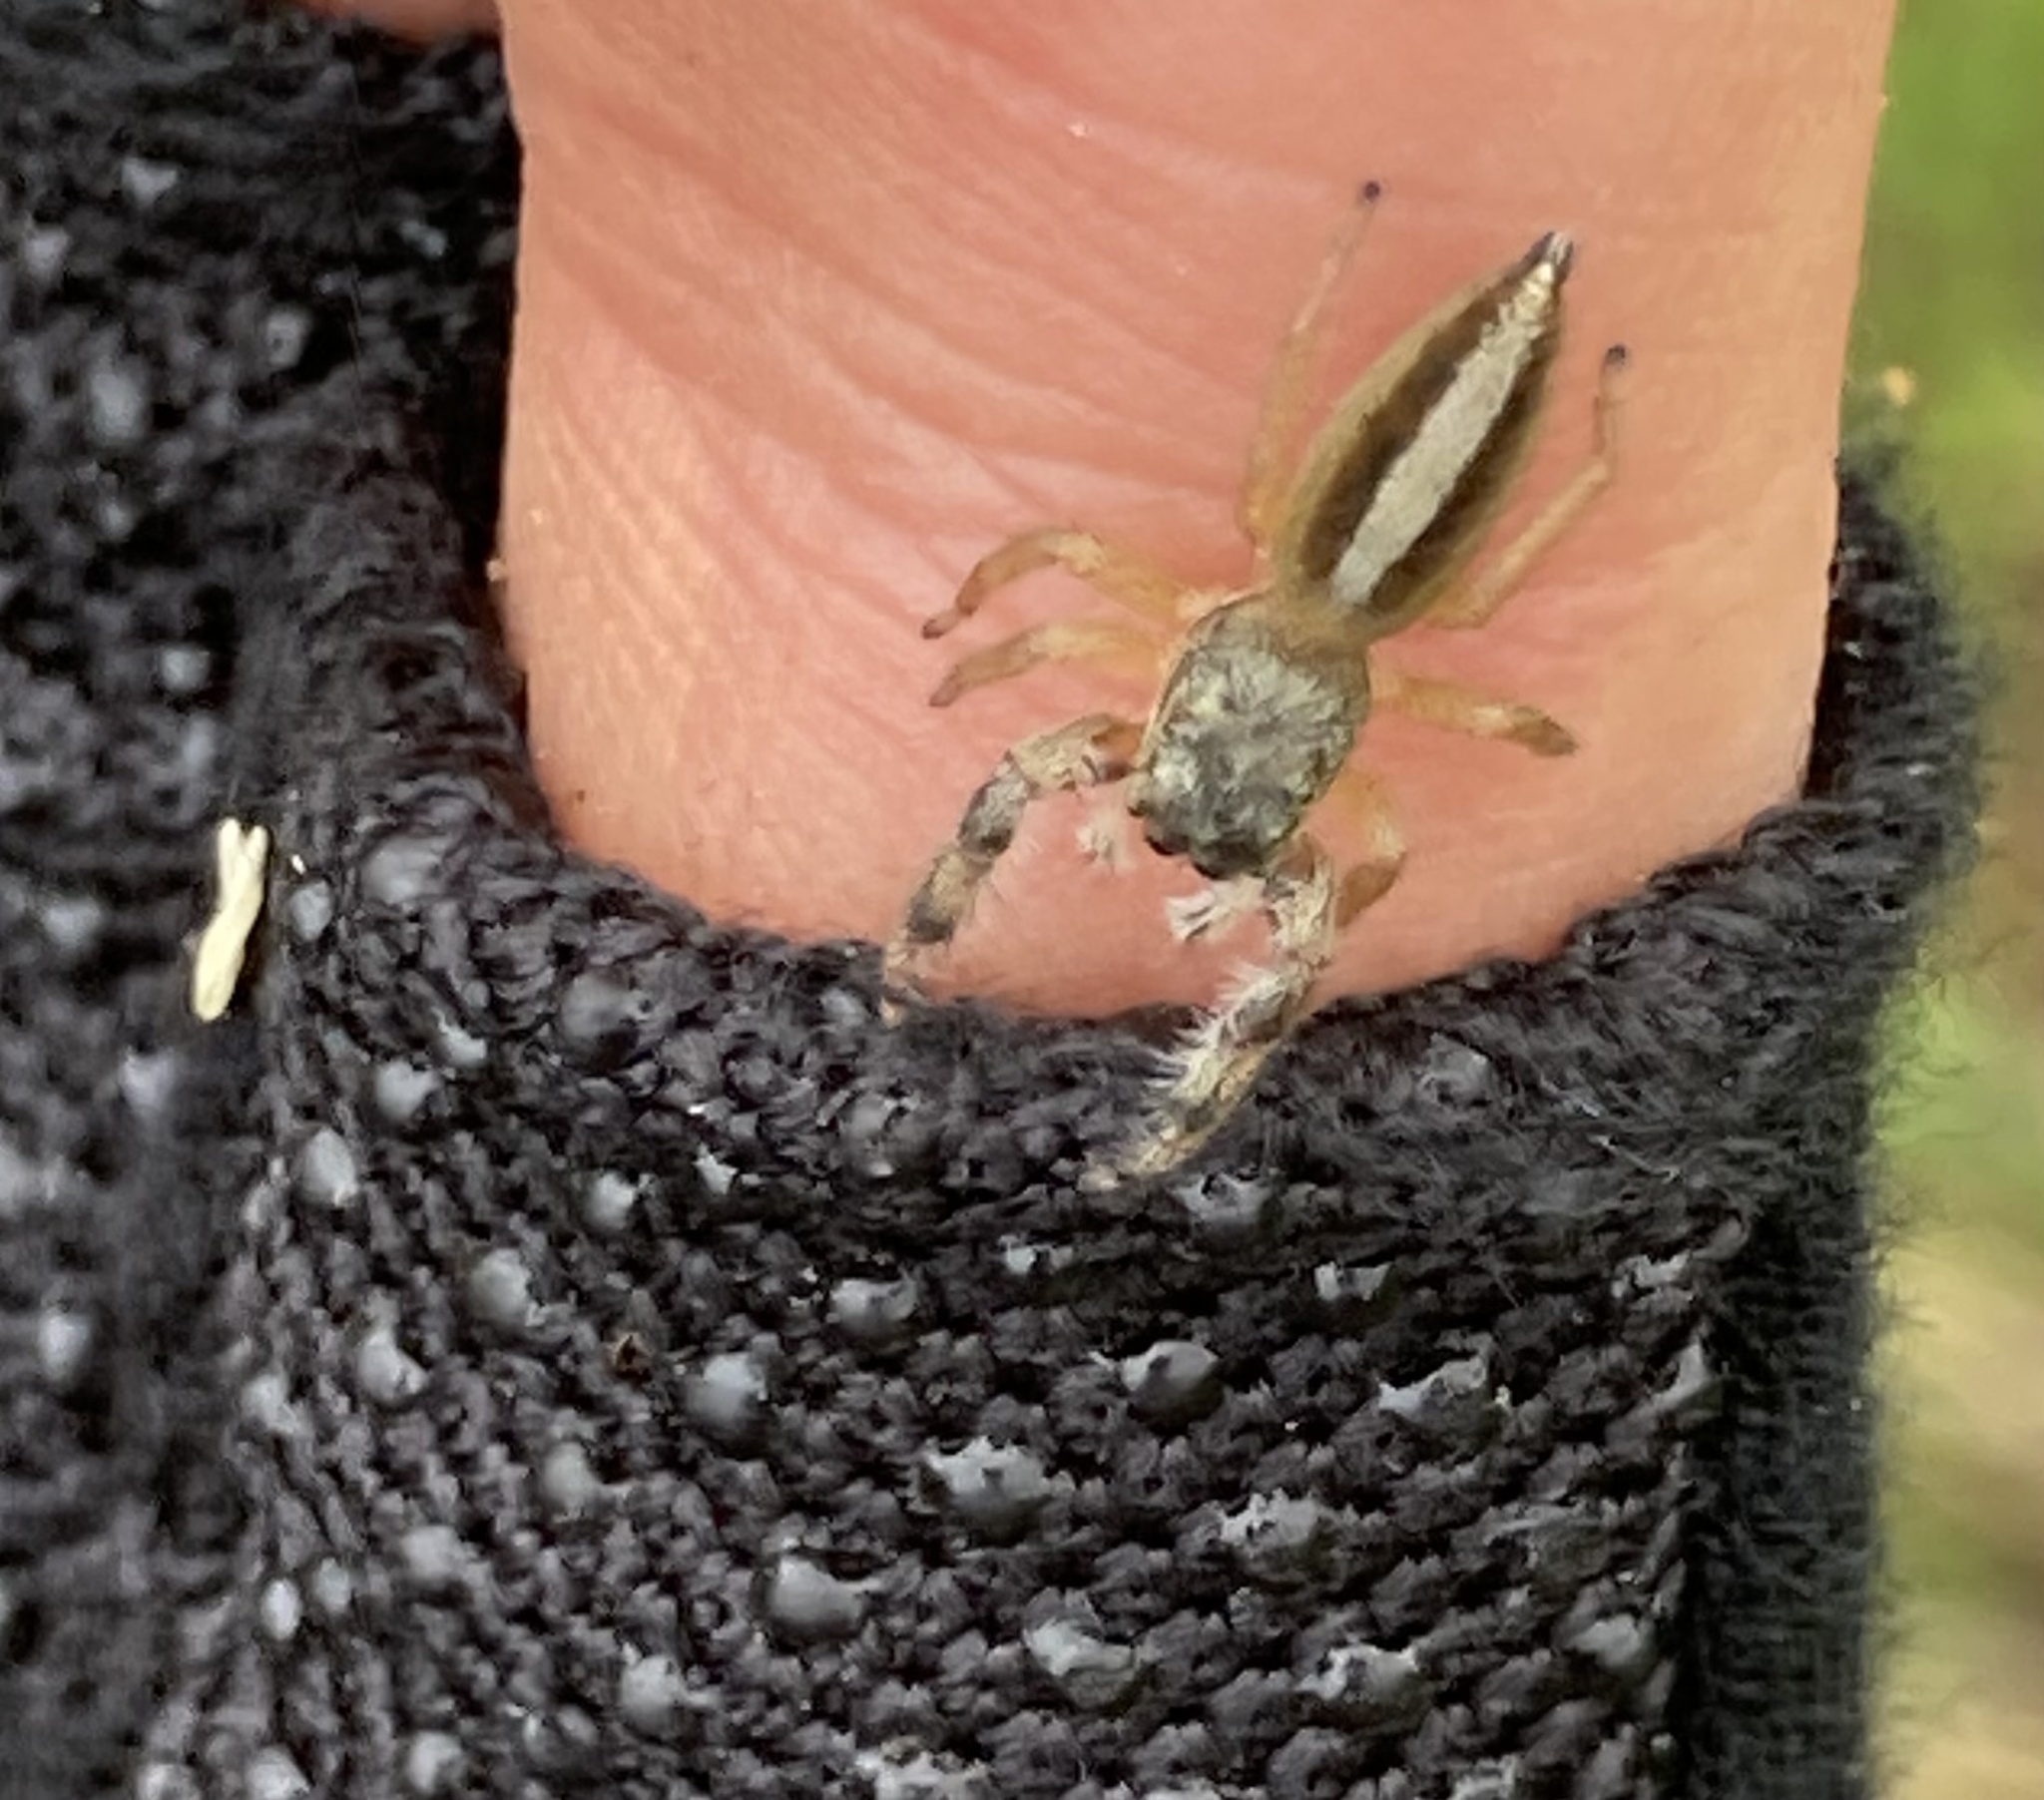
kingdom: Animalia
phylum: Arthropoda
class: Arachnida
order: Araneae
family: Salticidae
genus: Marpissa
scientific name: Marpissa formosa
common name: Short-bellied slender jumping spider
